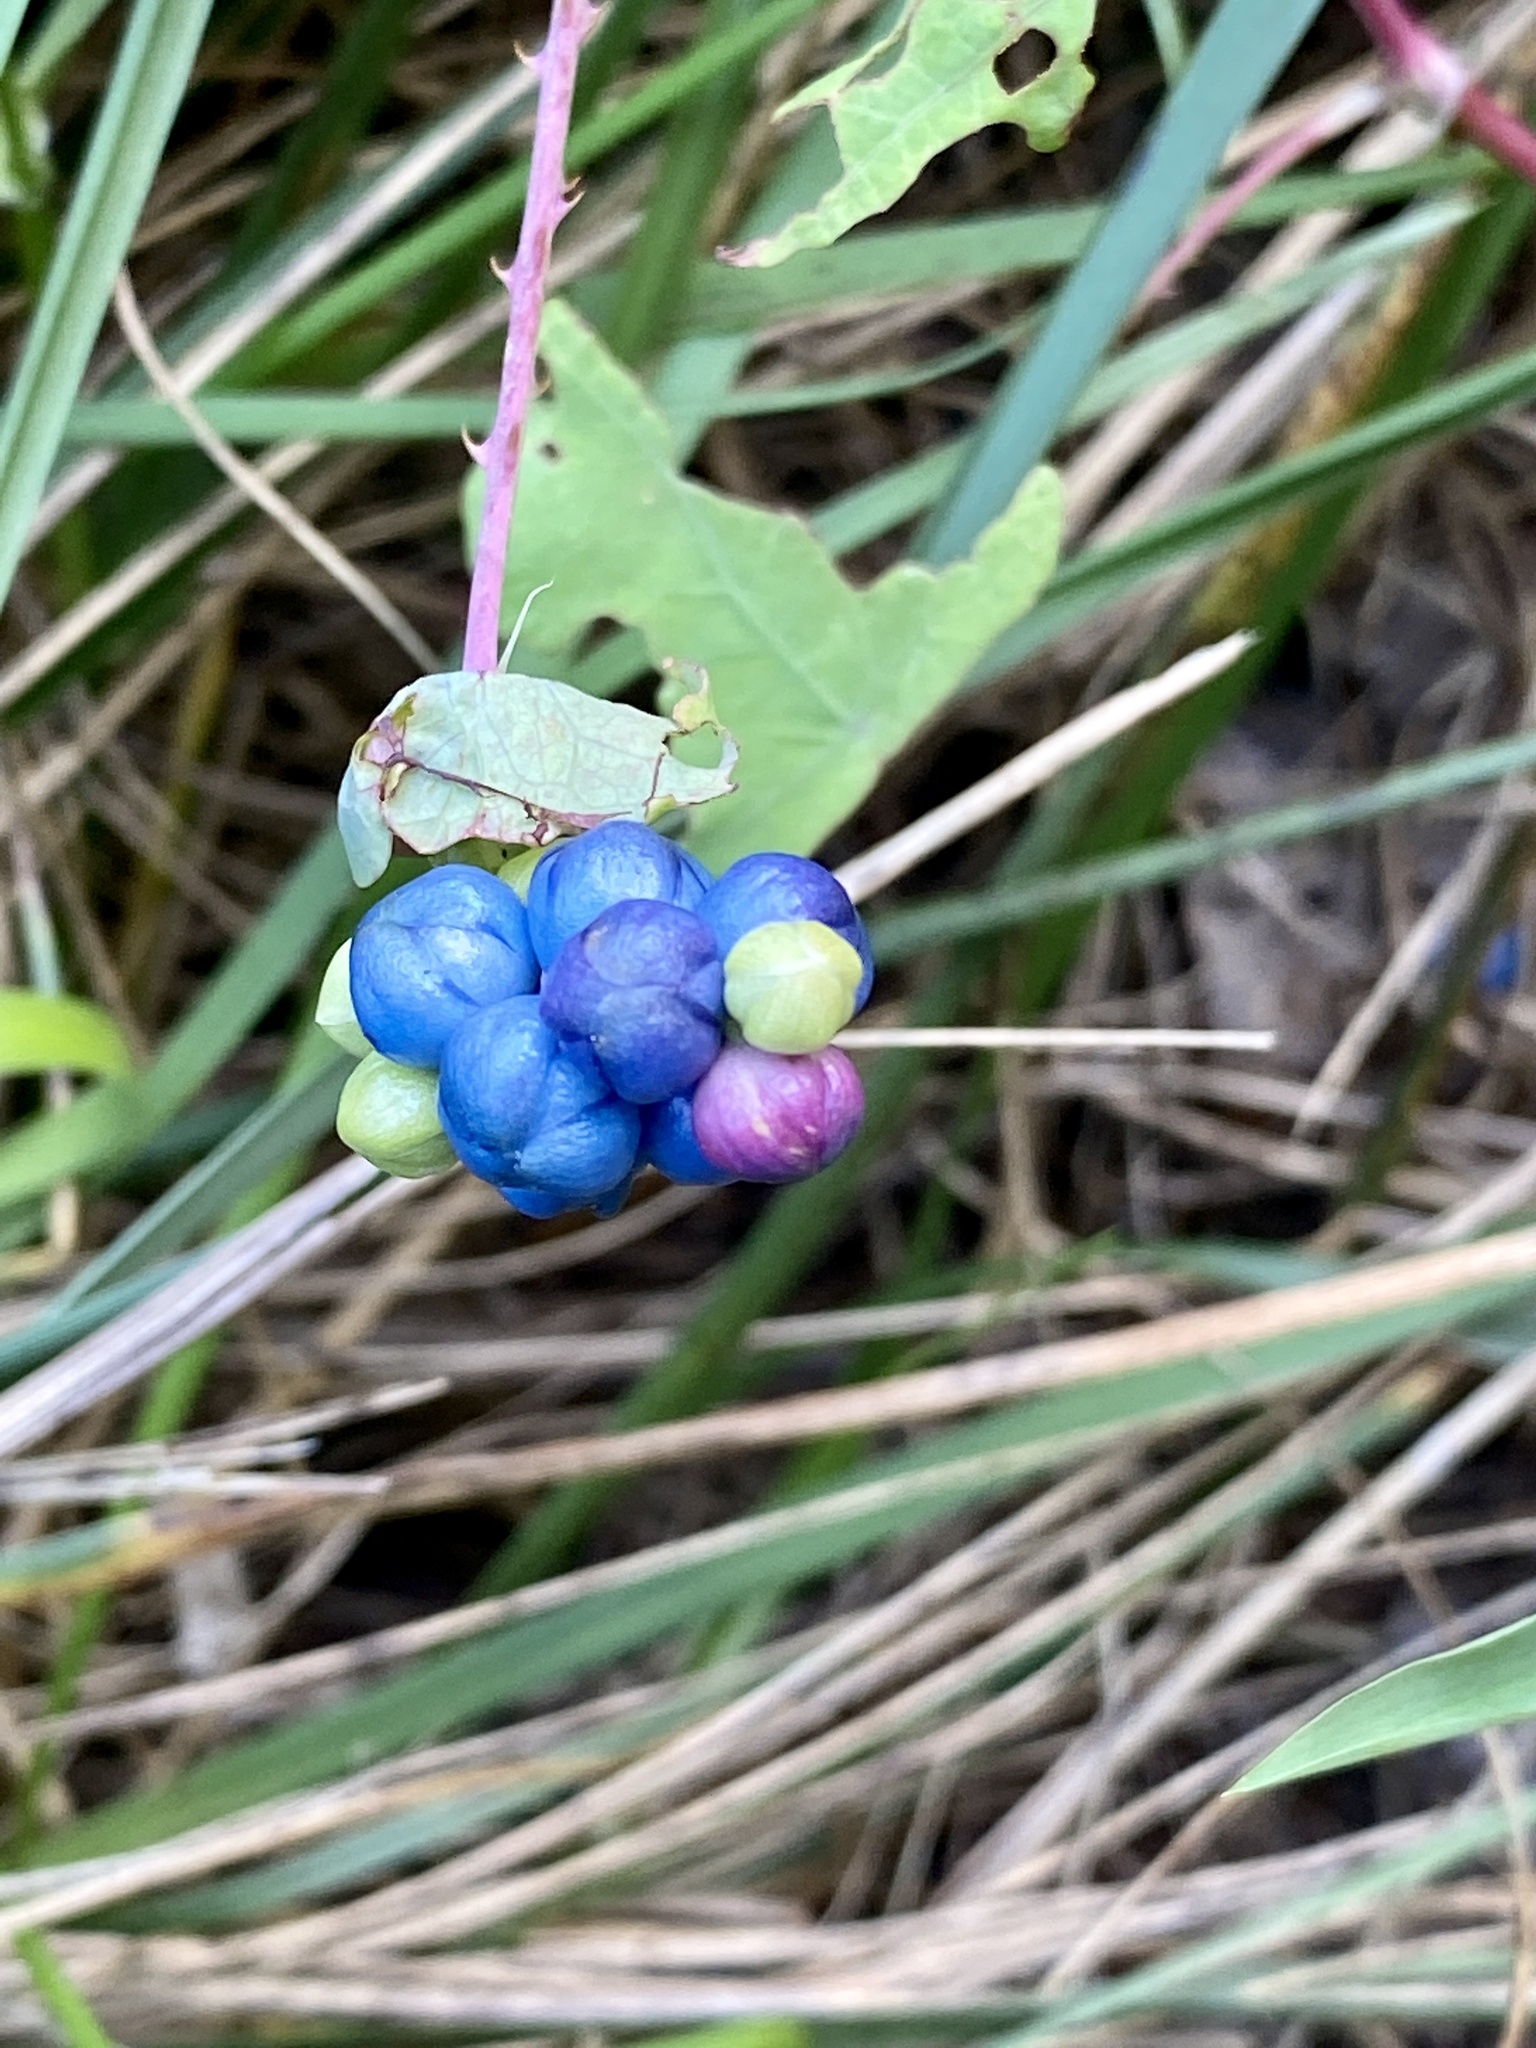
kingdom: Plantae
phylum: Tracheophyta
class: Magnoliopsida
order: Caryophyllales
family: Polygonaceae
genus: Persicaria
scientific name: Persicaria perfoliata
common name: Asiatic tearthumb
